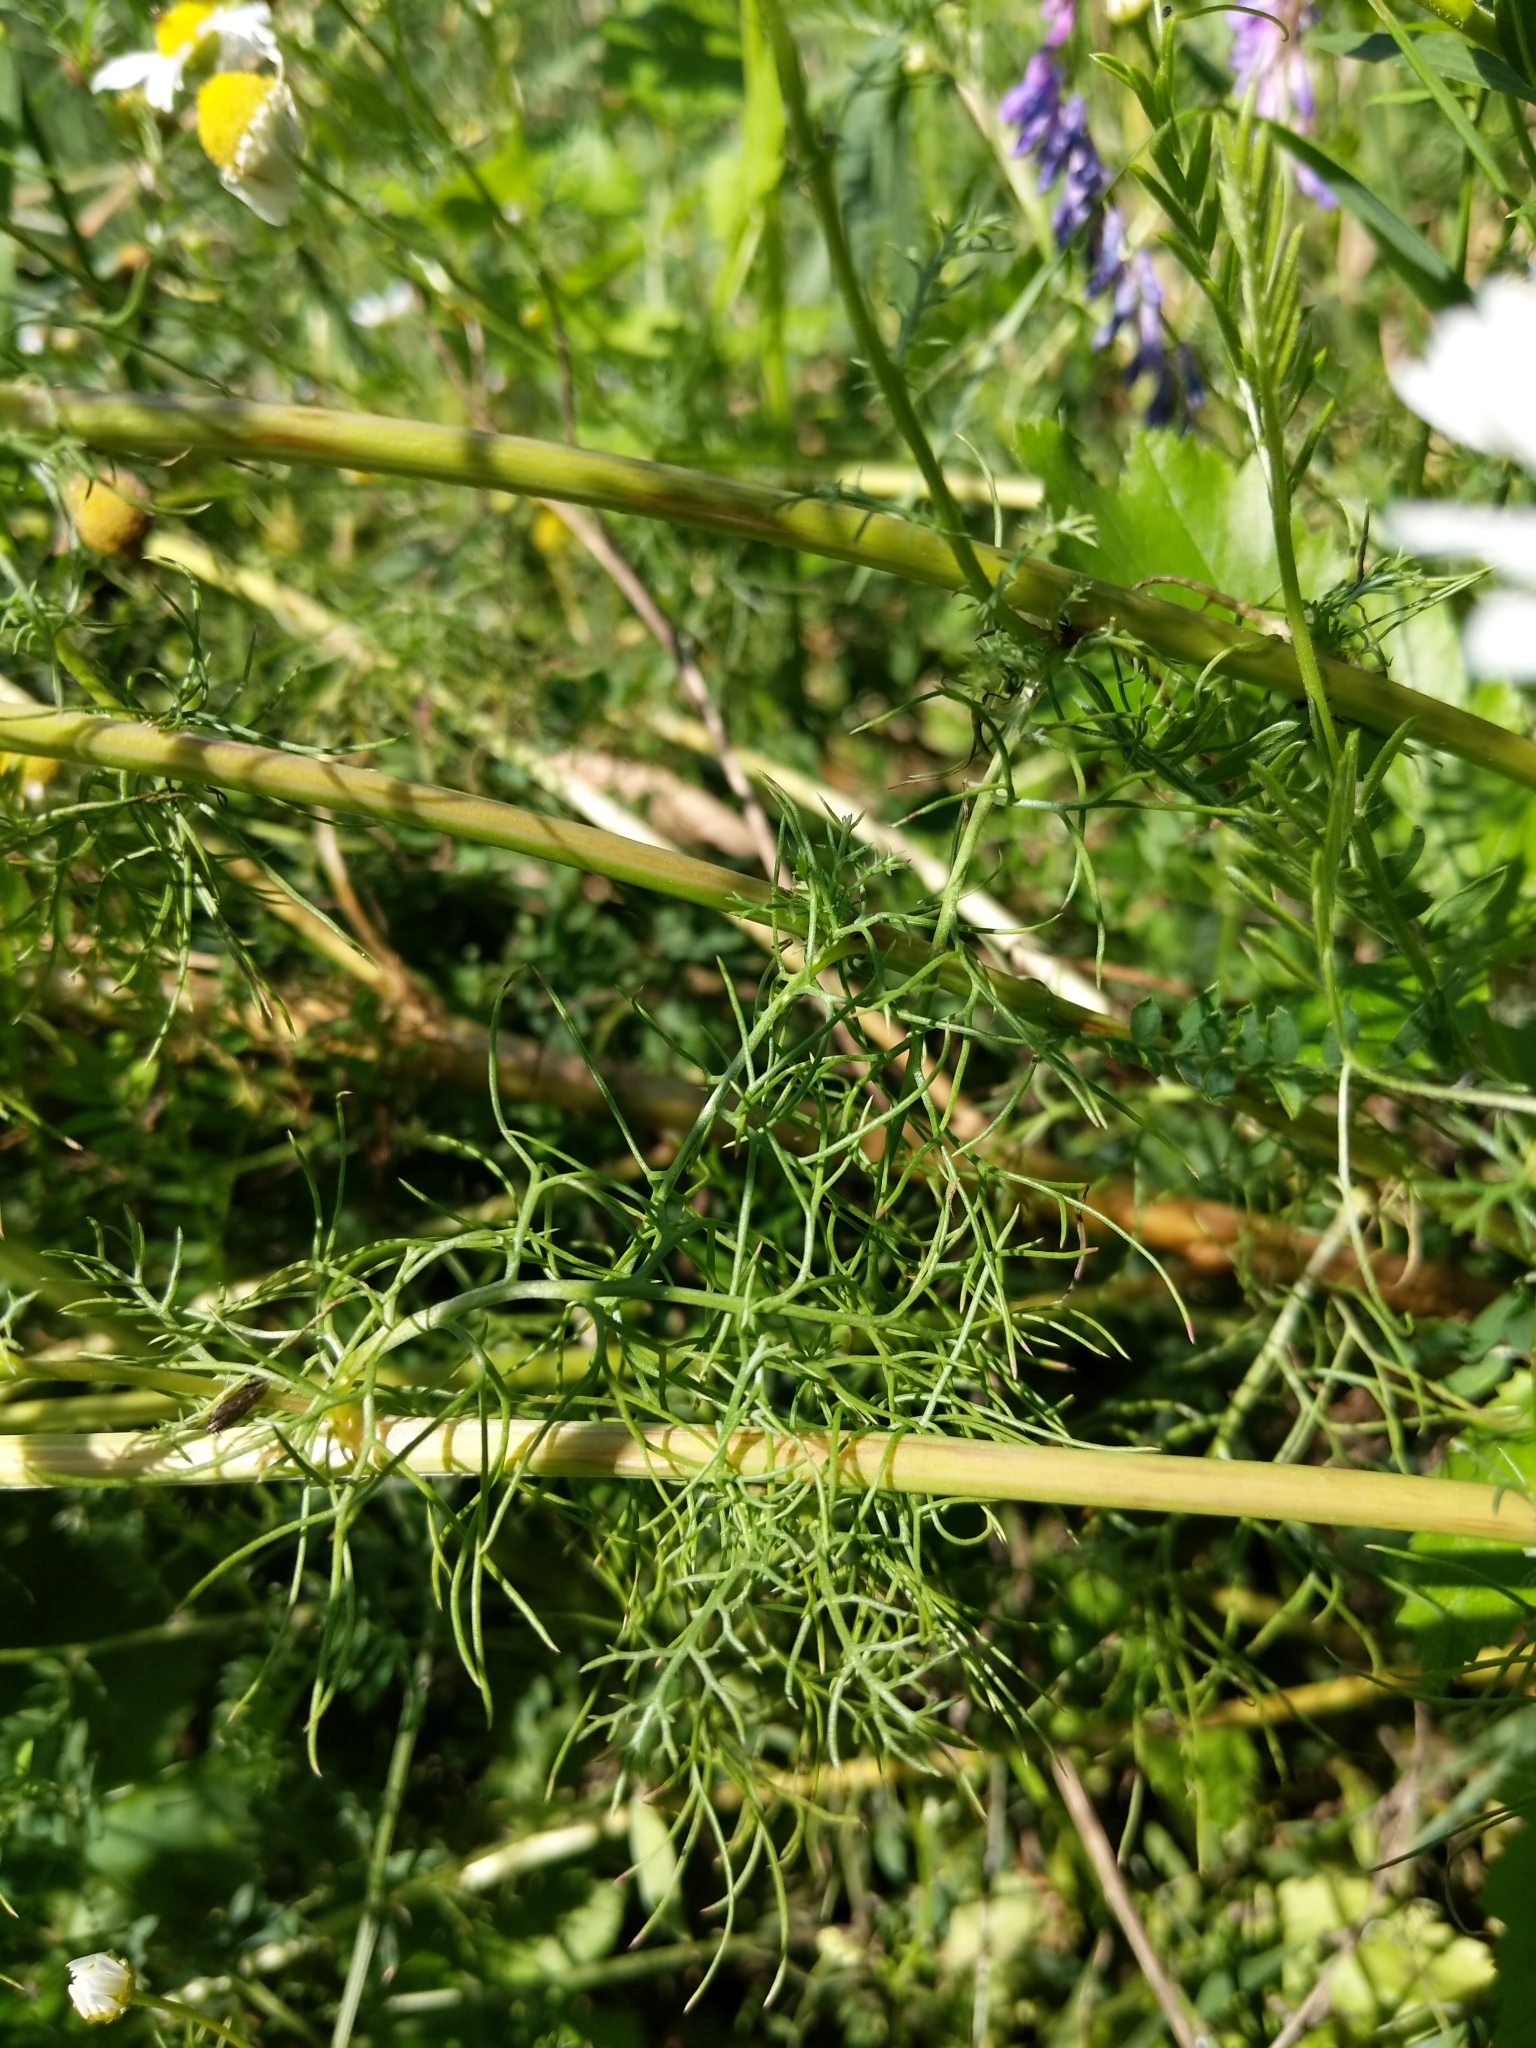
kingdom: Plantae
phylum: Tracheophyta
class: Magnoliopsida
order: Asterales
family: Asteraceae
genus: Tripleurospermum
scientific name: Tripleurospermum inodorum
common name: Scentless mayweed
